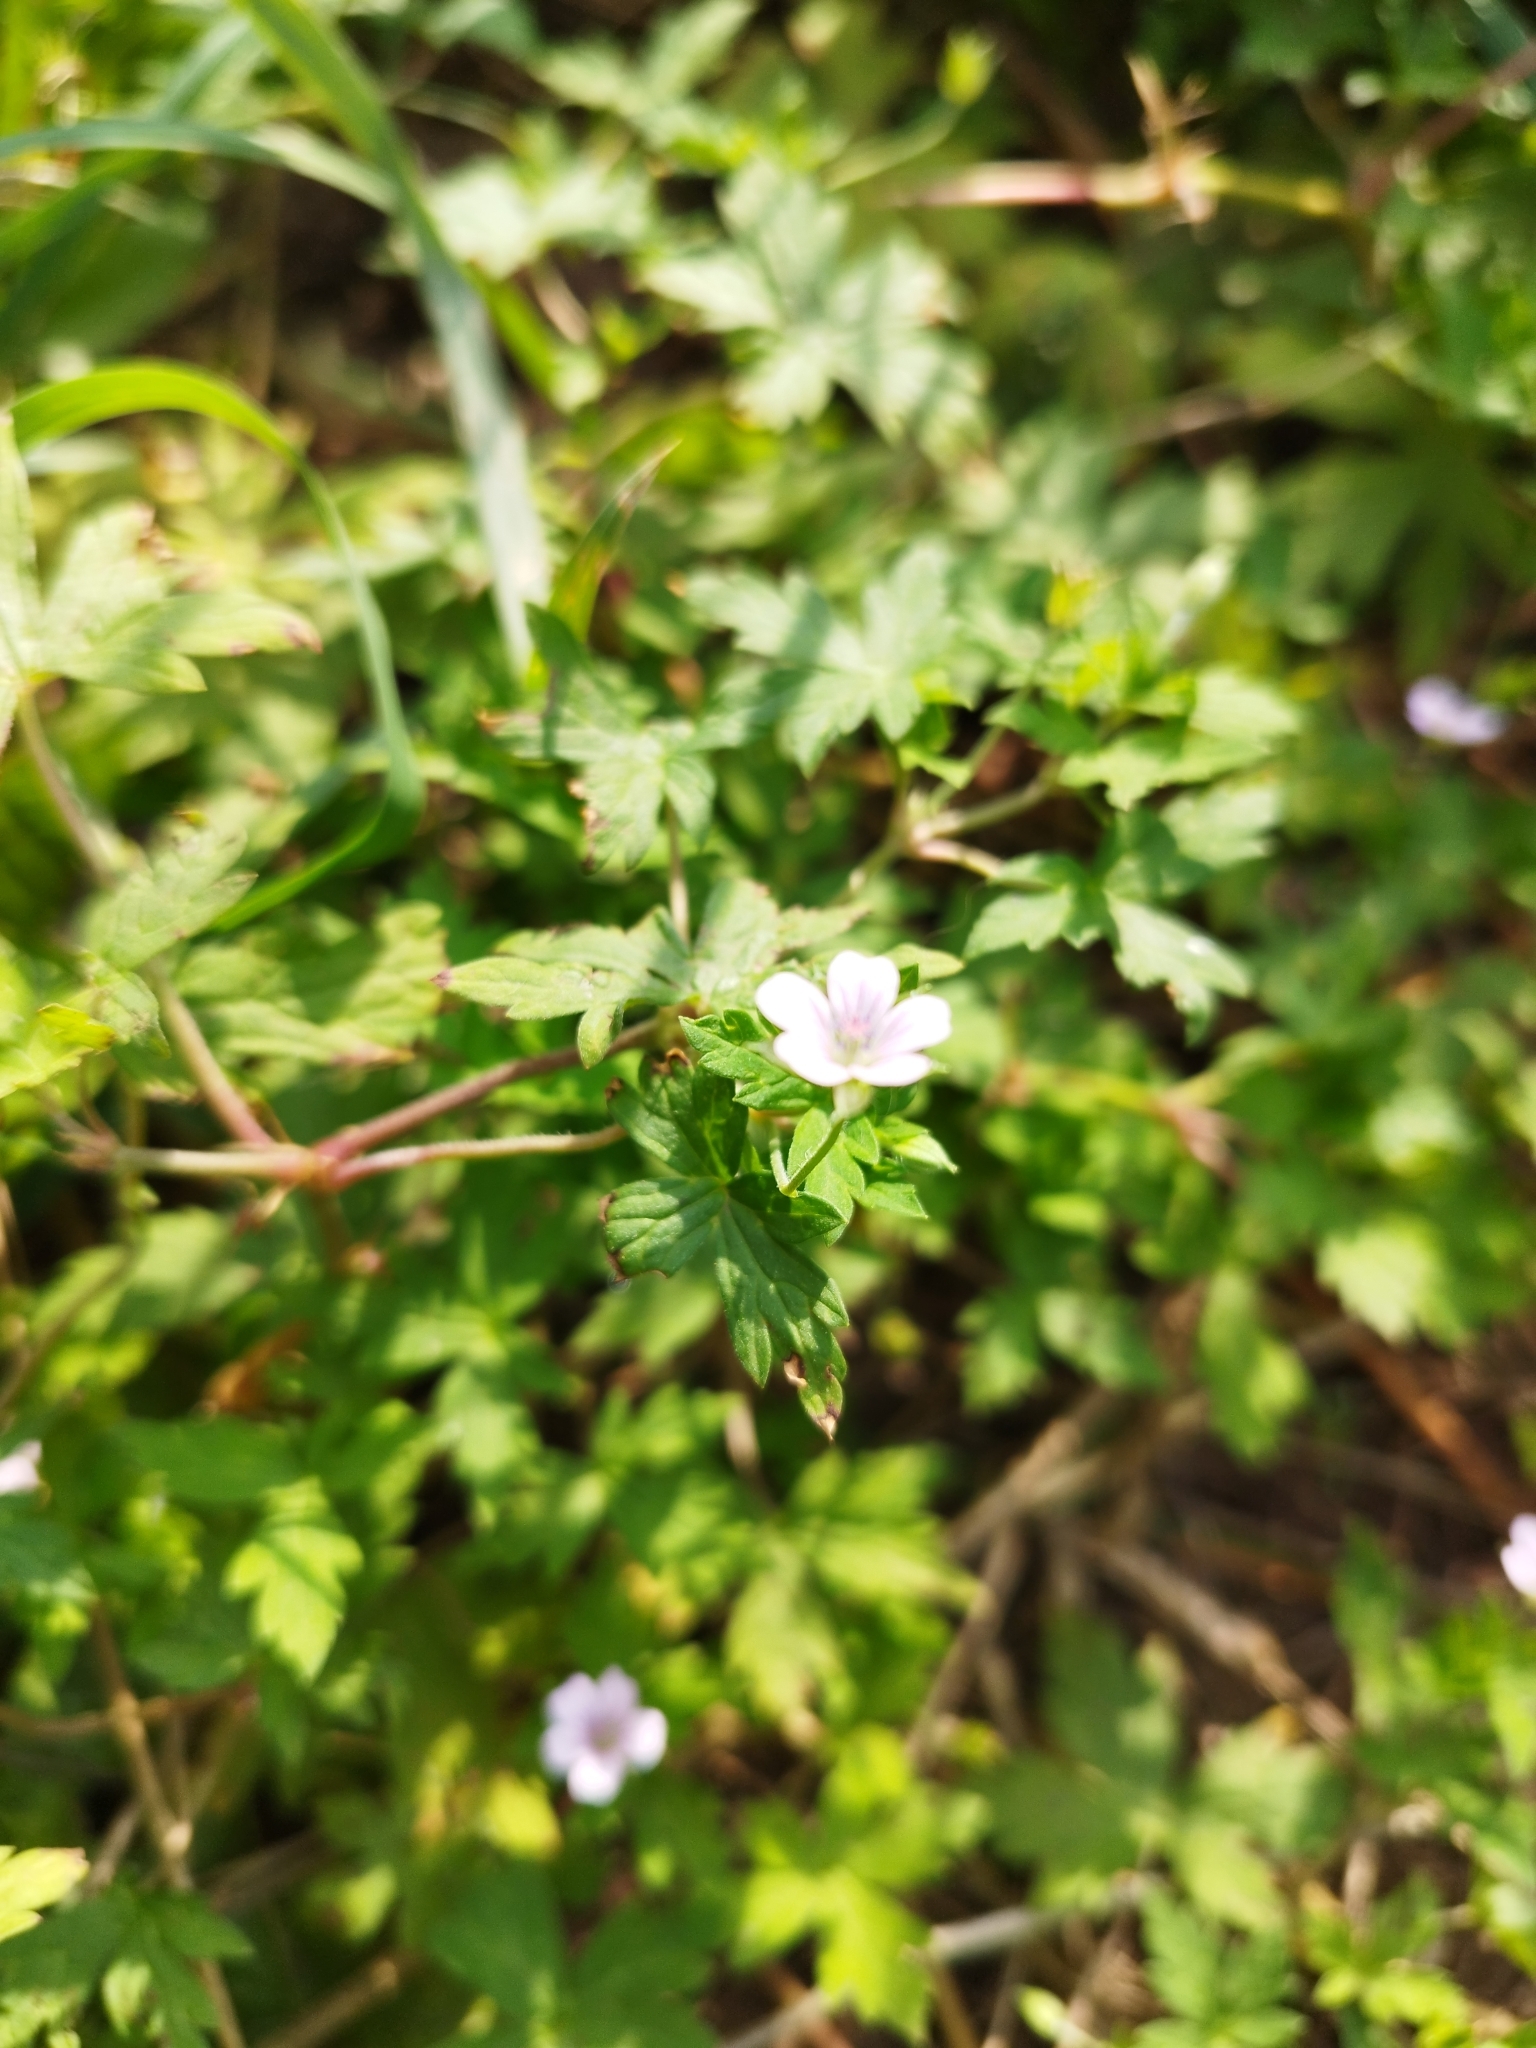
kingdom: Plantae
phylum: Tracheophyta
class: Magnoliopsida
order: Geraniales
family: Geraniaceae
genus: Geranium
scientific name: Geranium sibiricum
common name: Siberian crane's-bill
